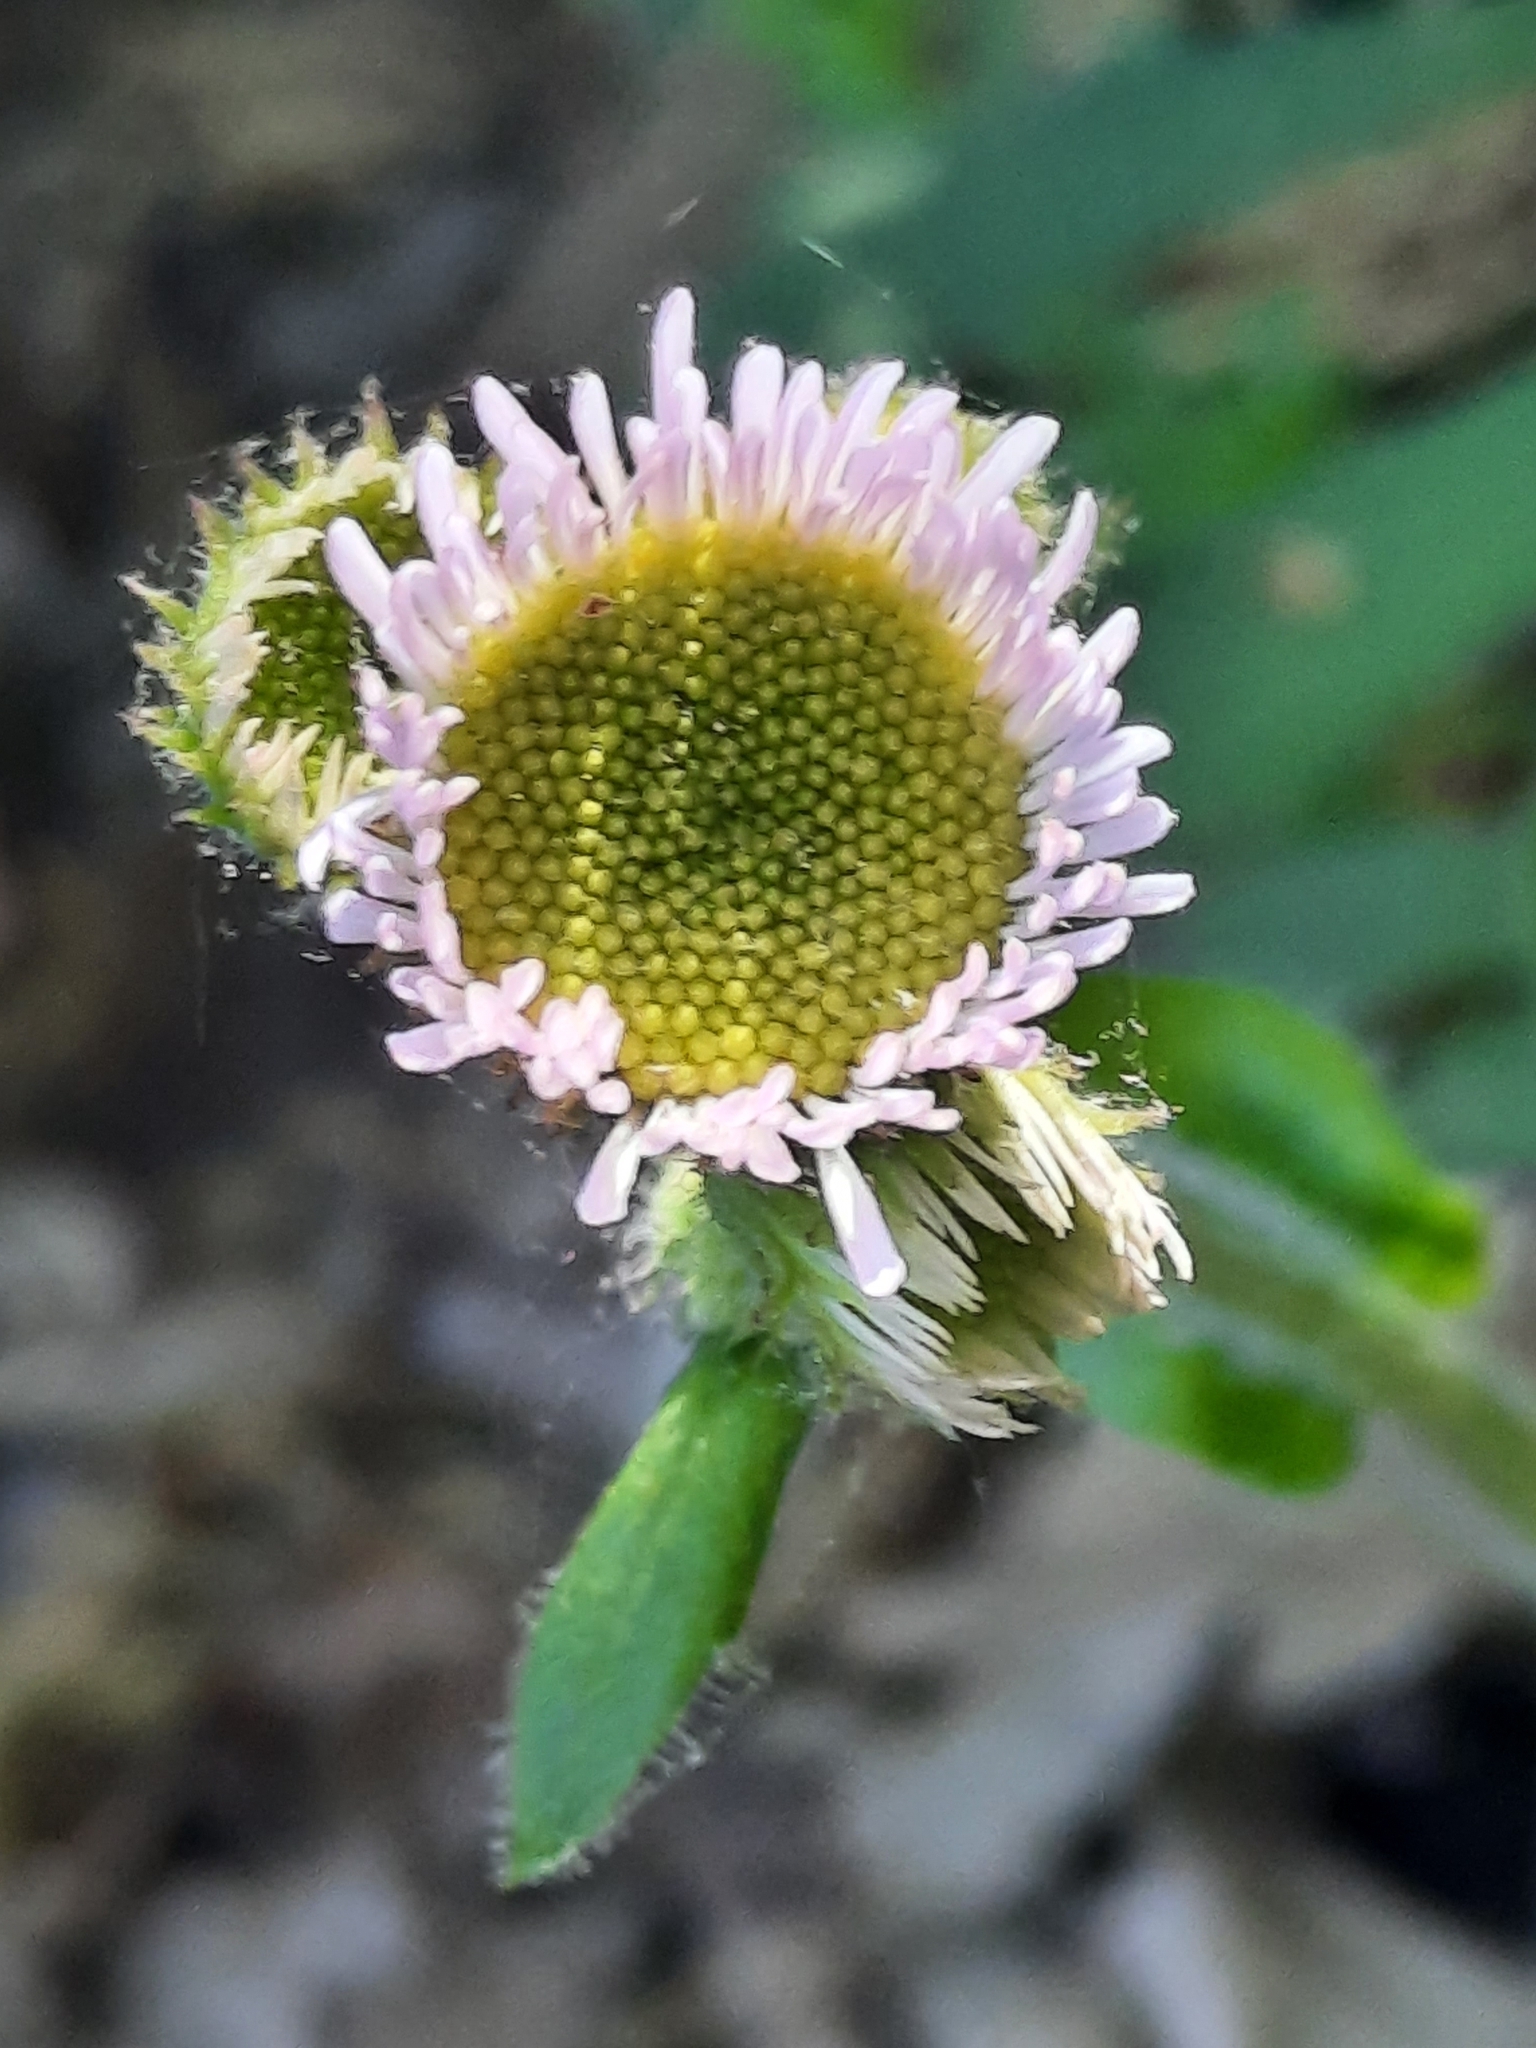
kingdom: Plantae
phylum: Tracheophyta
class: Magnoliopsida
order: Asterales
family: Asteraceae
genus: Erigeron
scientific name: Erigeron pulchellus
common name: Hairy fleabane
